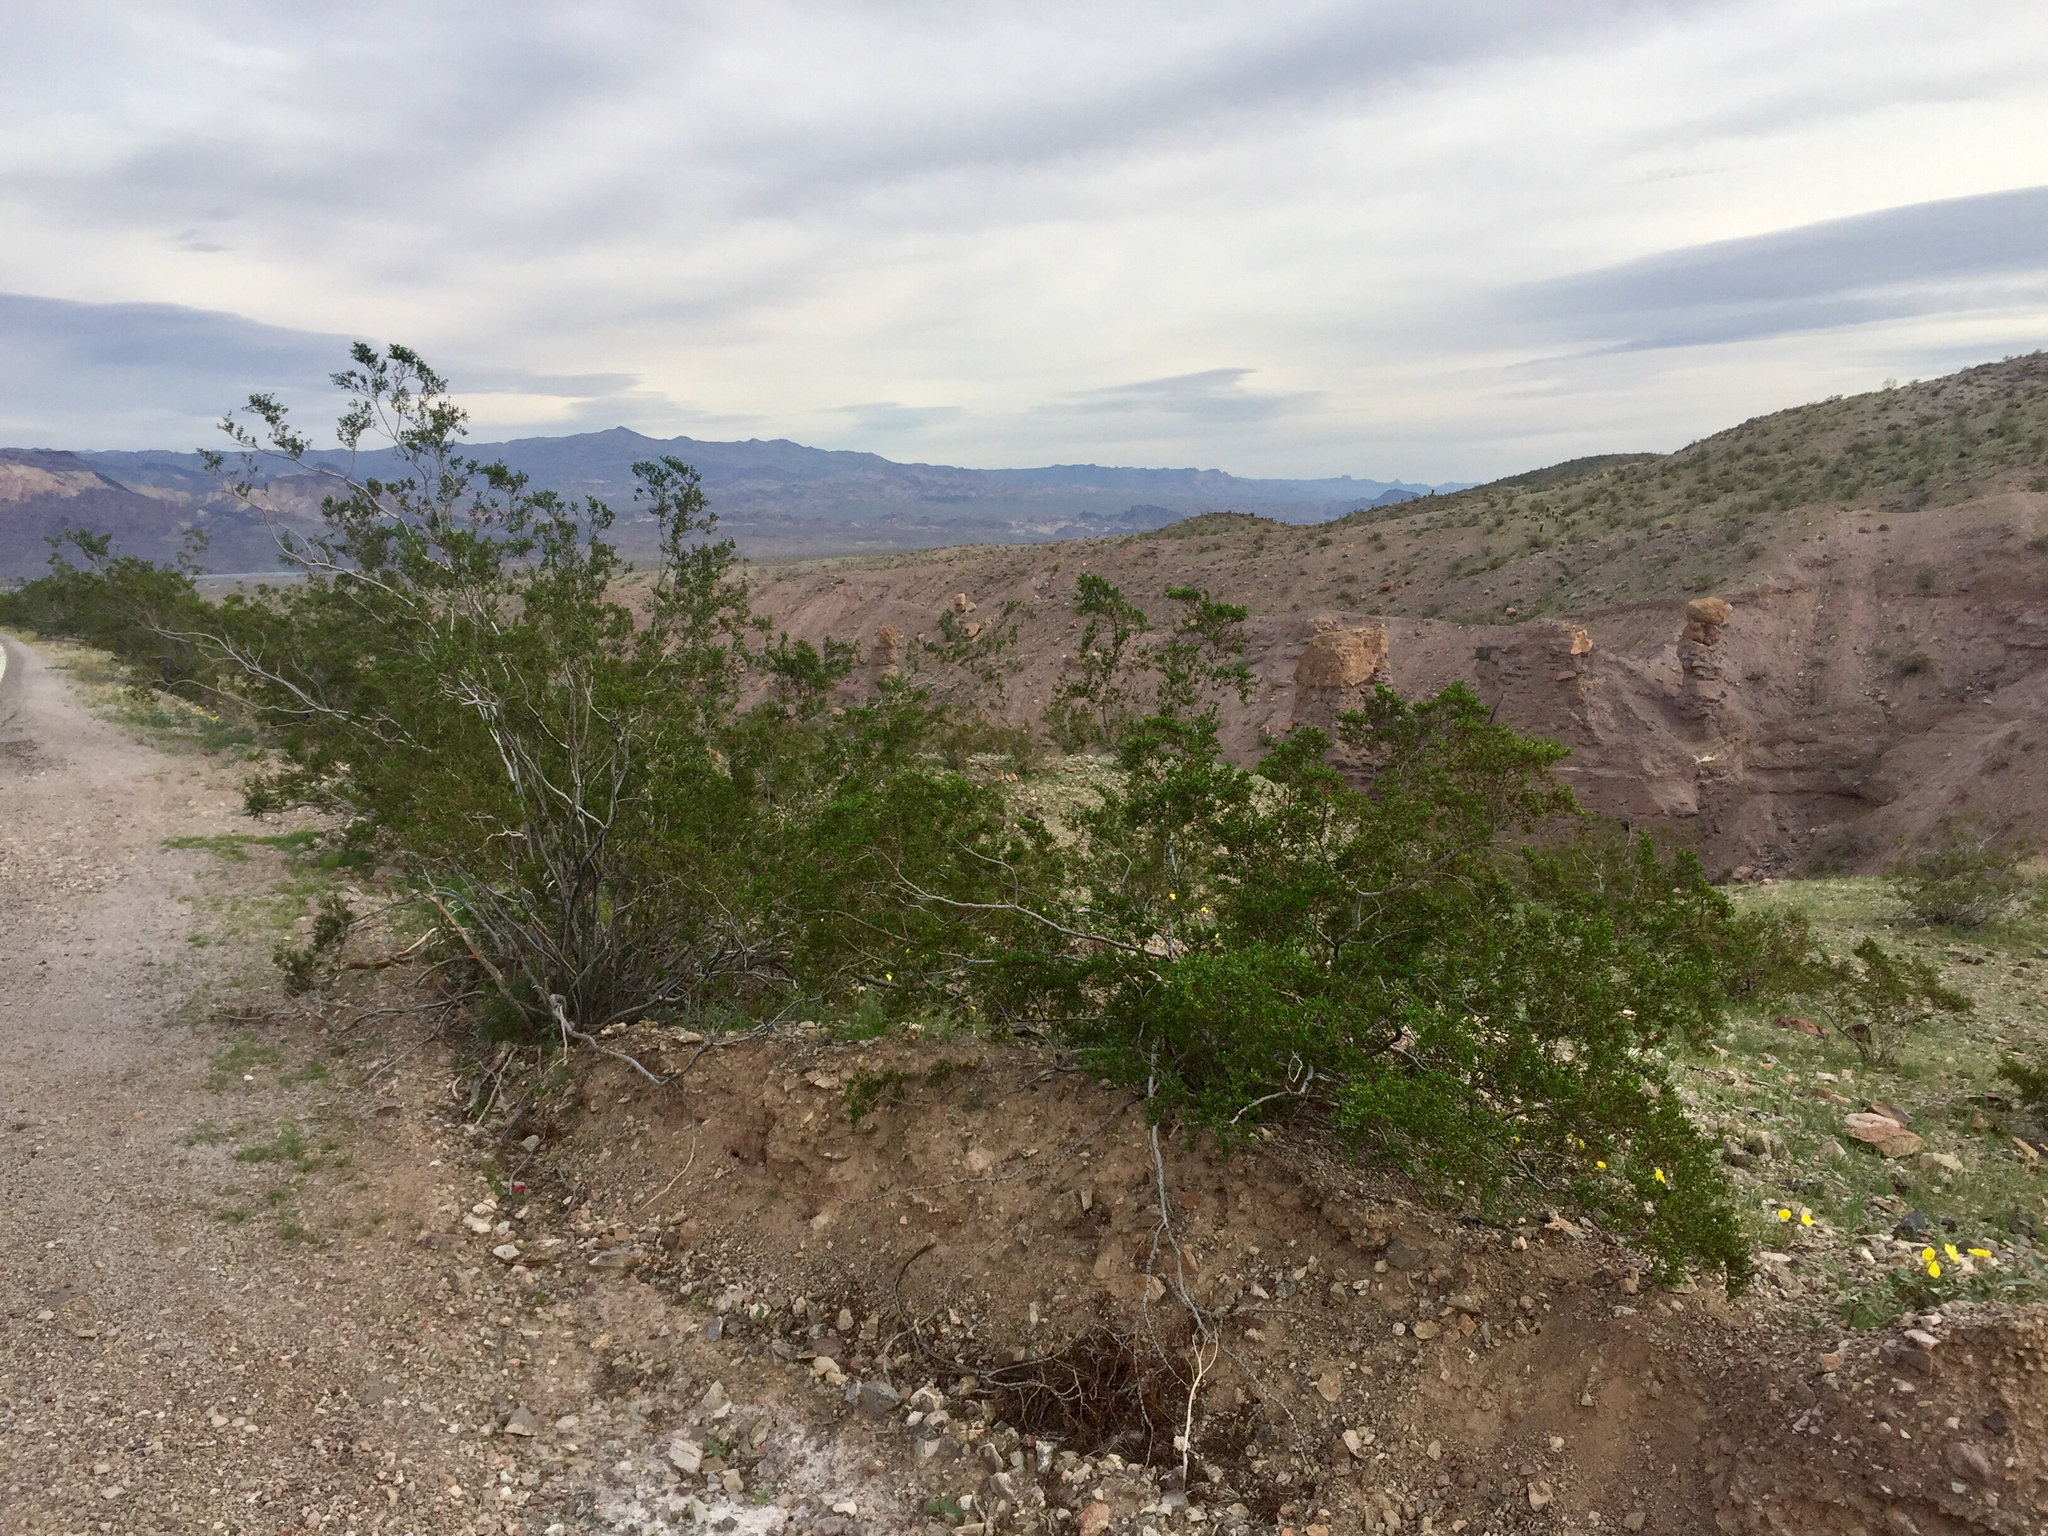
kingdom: Plantae
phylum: Tracheophyta
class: Magnoliopsida
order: Zygophyllales
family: Zygophyllaceae
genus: Larrea
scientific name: Larrea tridentata
